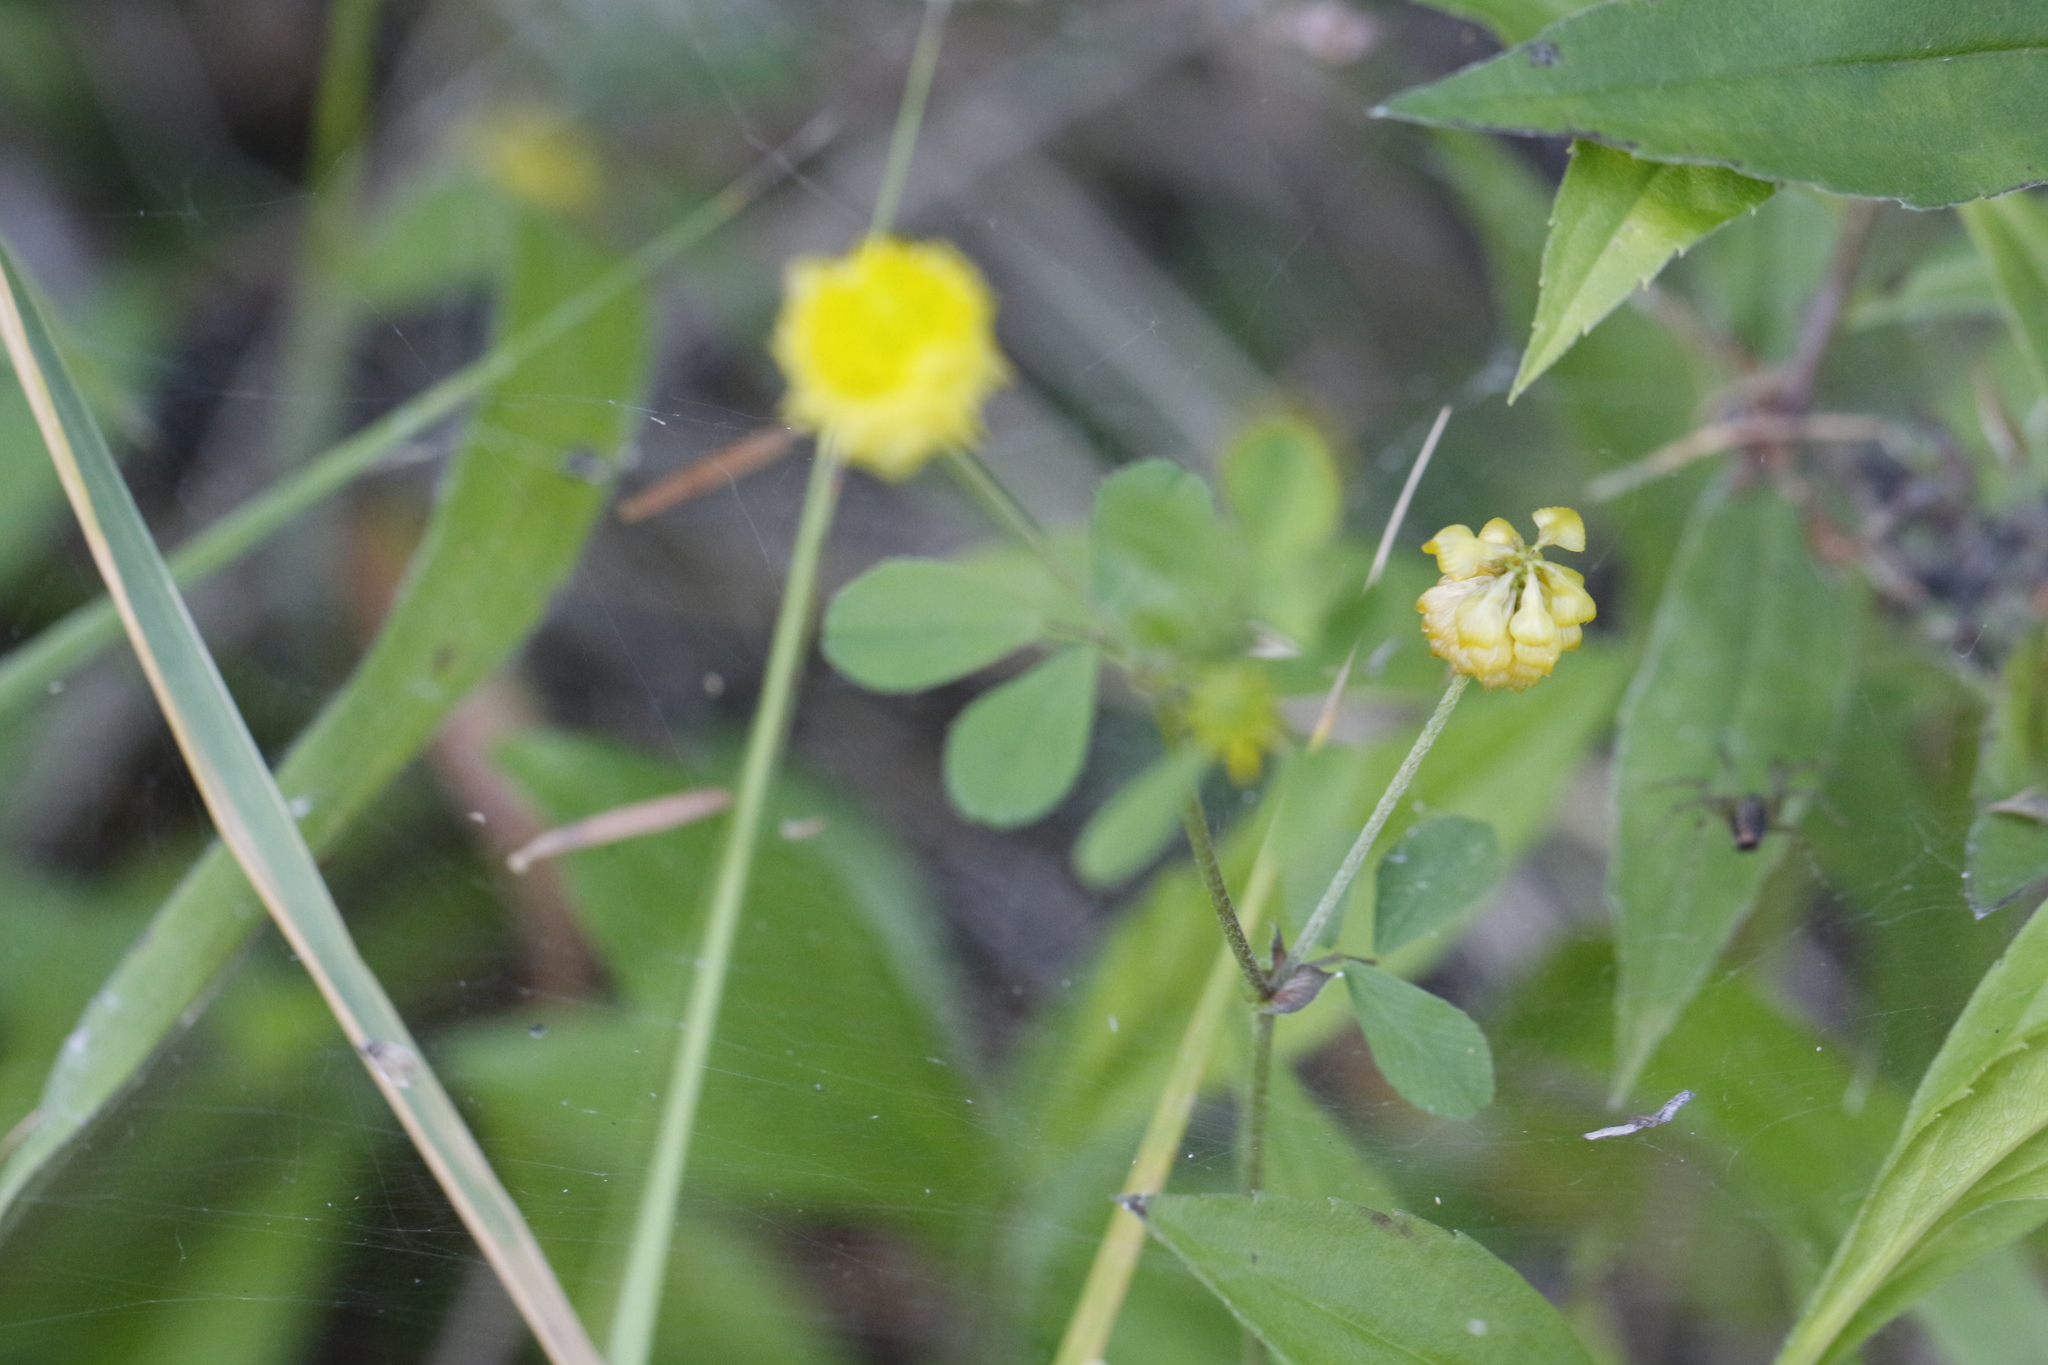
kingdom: Plantae
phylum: Tracheophyta
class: Magnoliopsida
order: Fabales
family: Fabaceae
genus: Trifolium
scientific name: Trifolium campestre
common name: Field clover
